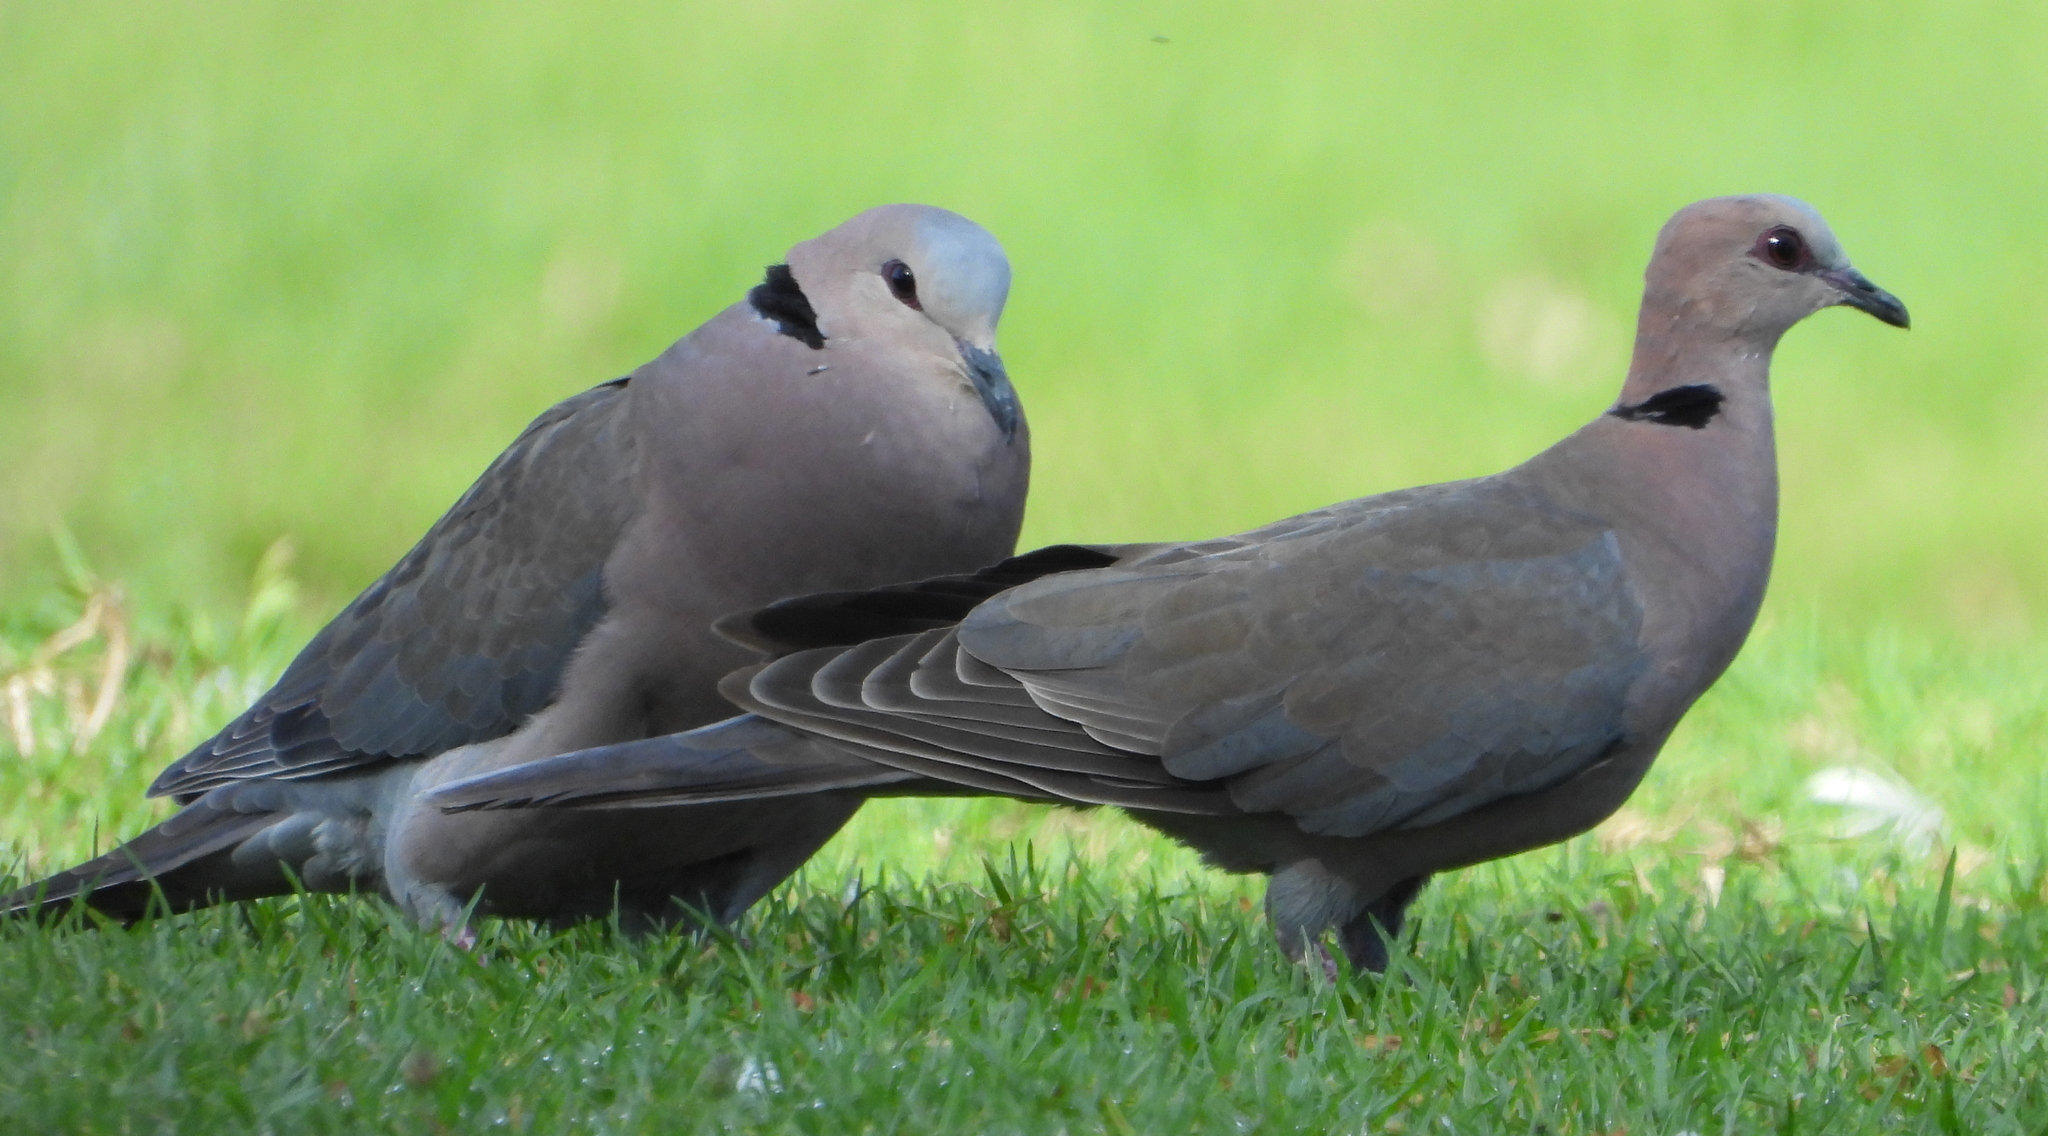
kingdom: Animalia
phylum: Chordata
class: Aves
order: Columbiformes
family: Columbidae
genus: Streptopelia
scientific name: Streptopelia semitorquata
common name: Red-eyed dove
